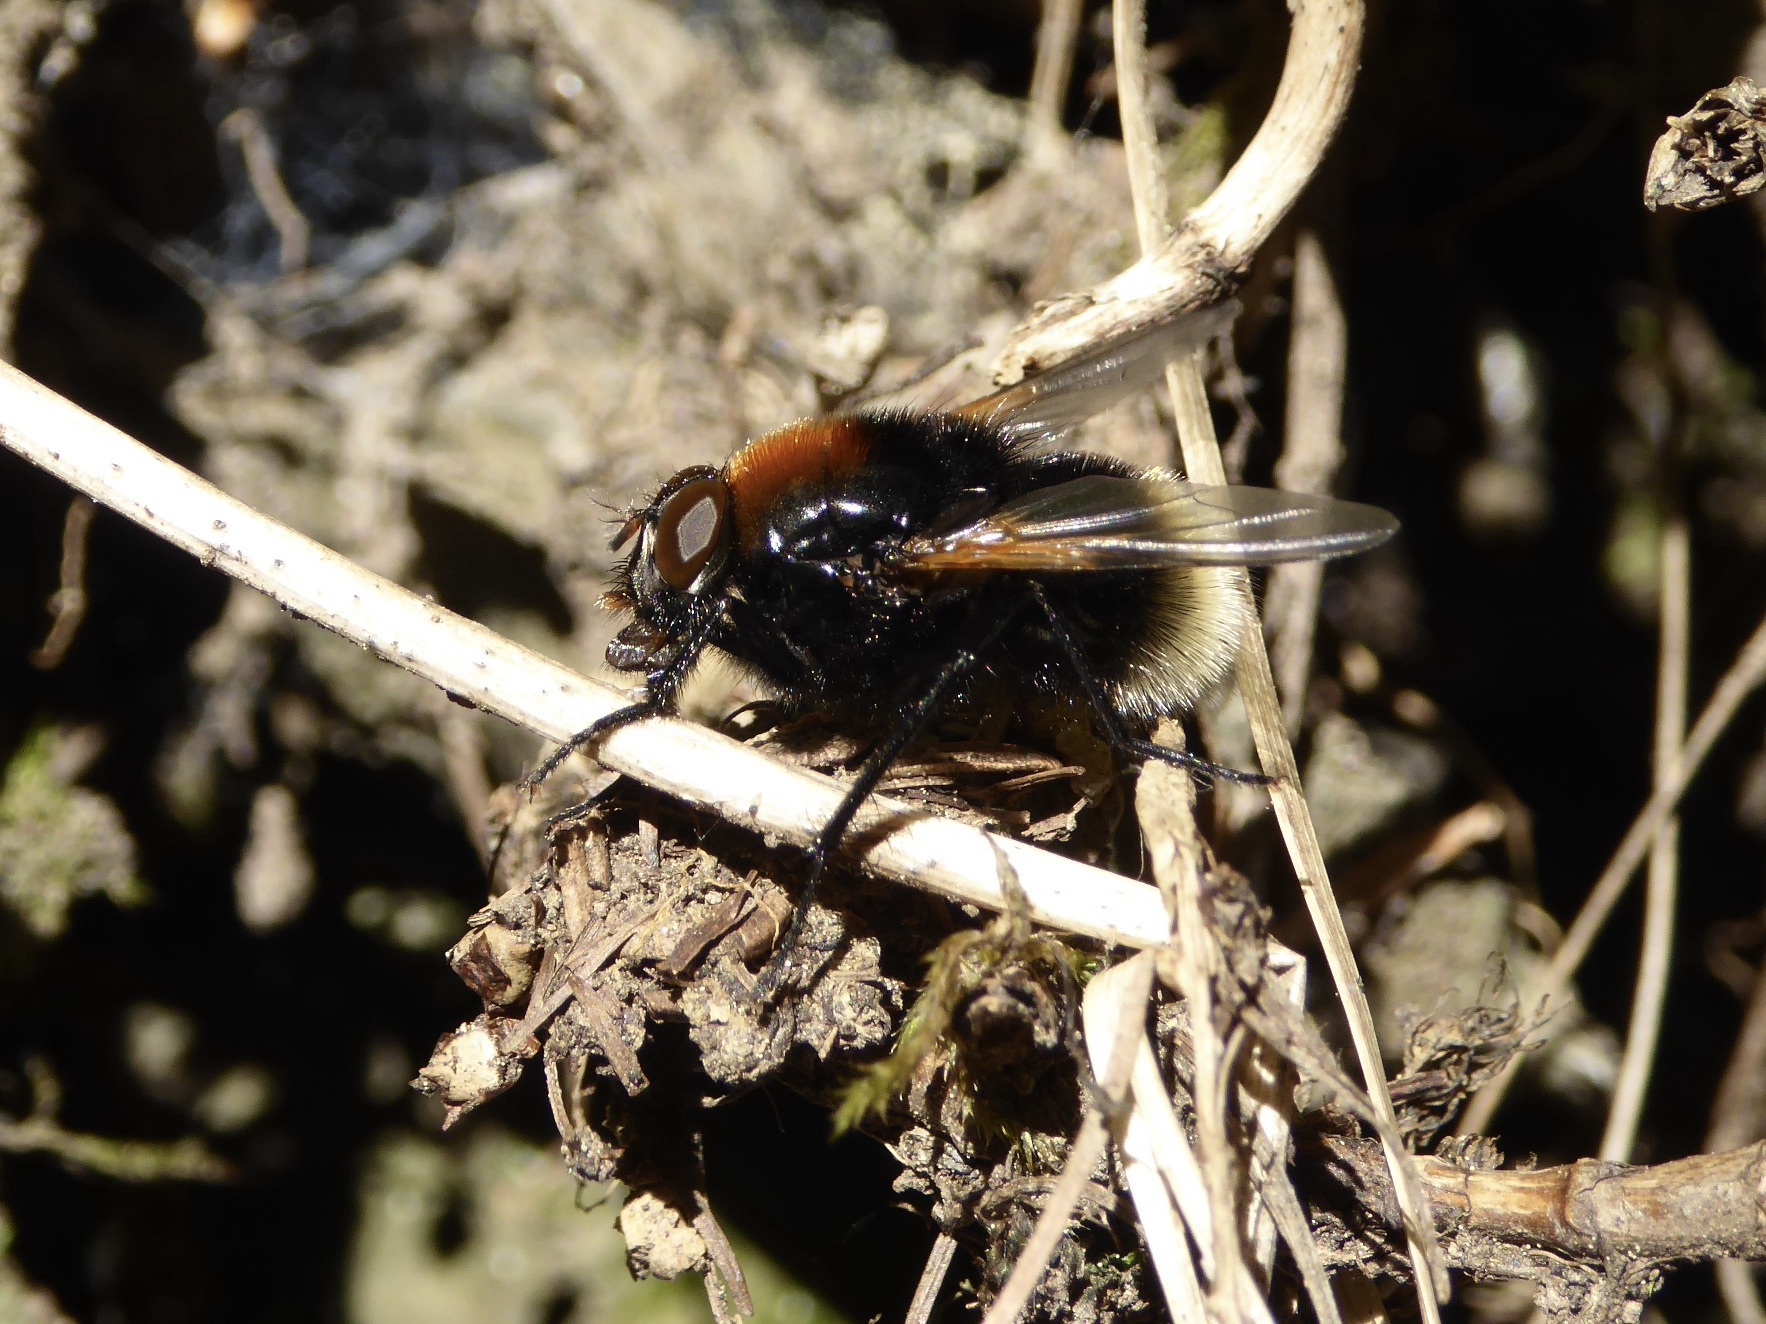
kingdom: Animalia
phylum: Arthropoda
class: Insecta
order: Diptera
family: Muscidae
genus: Mesembrina
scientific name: Mesembrina mystacea
